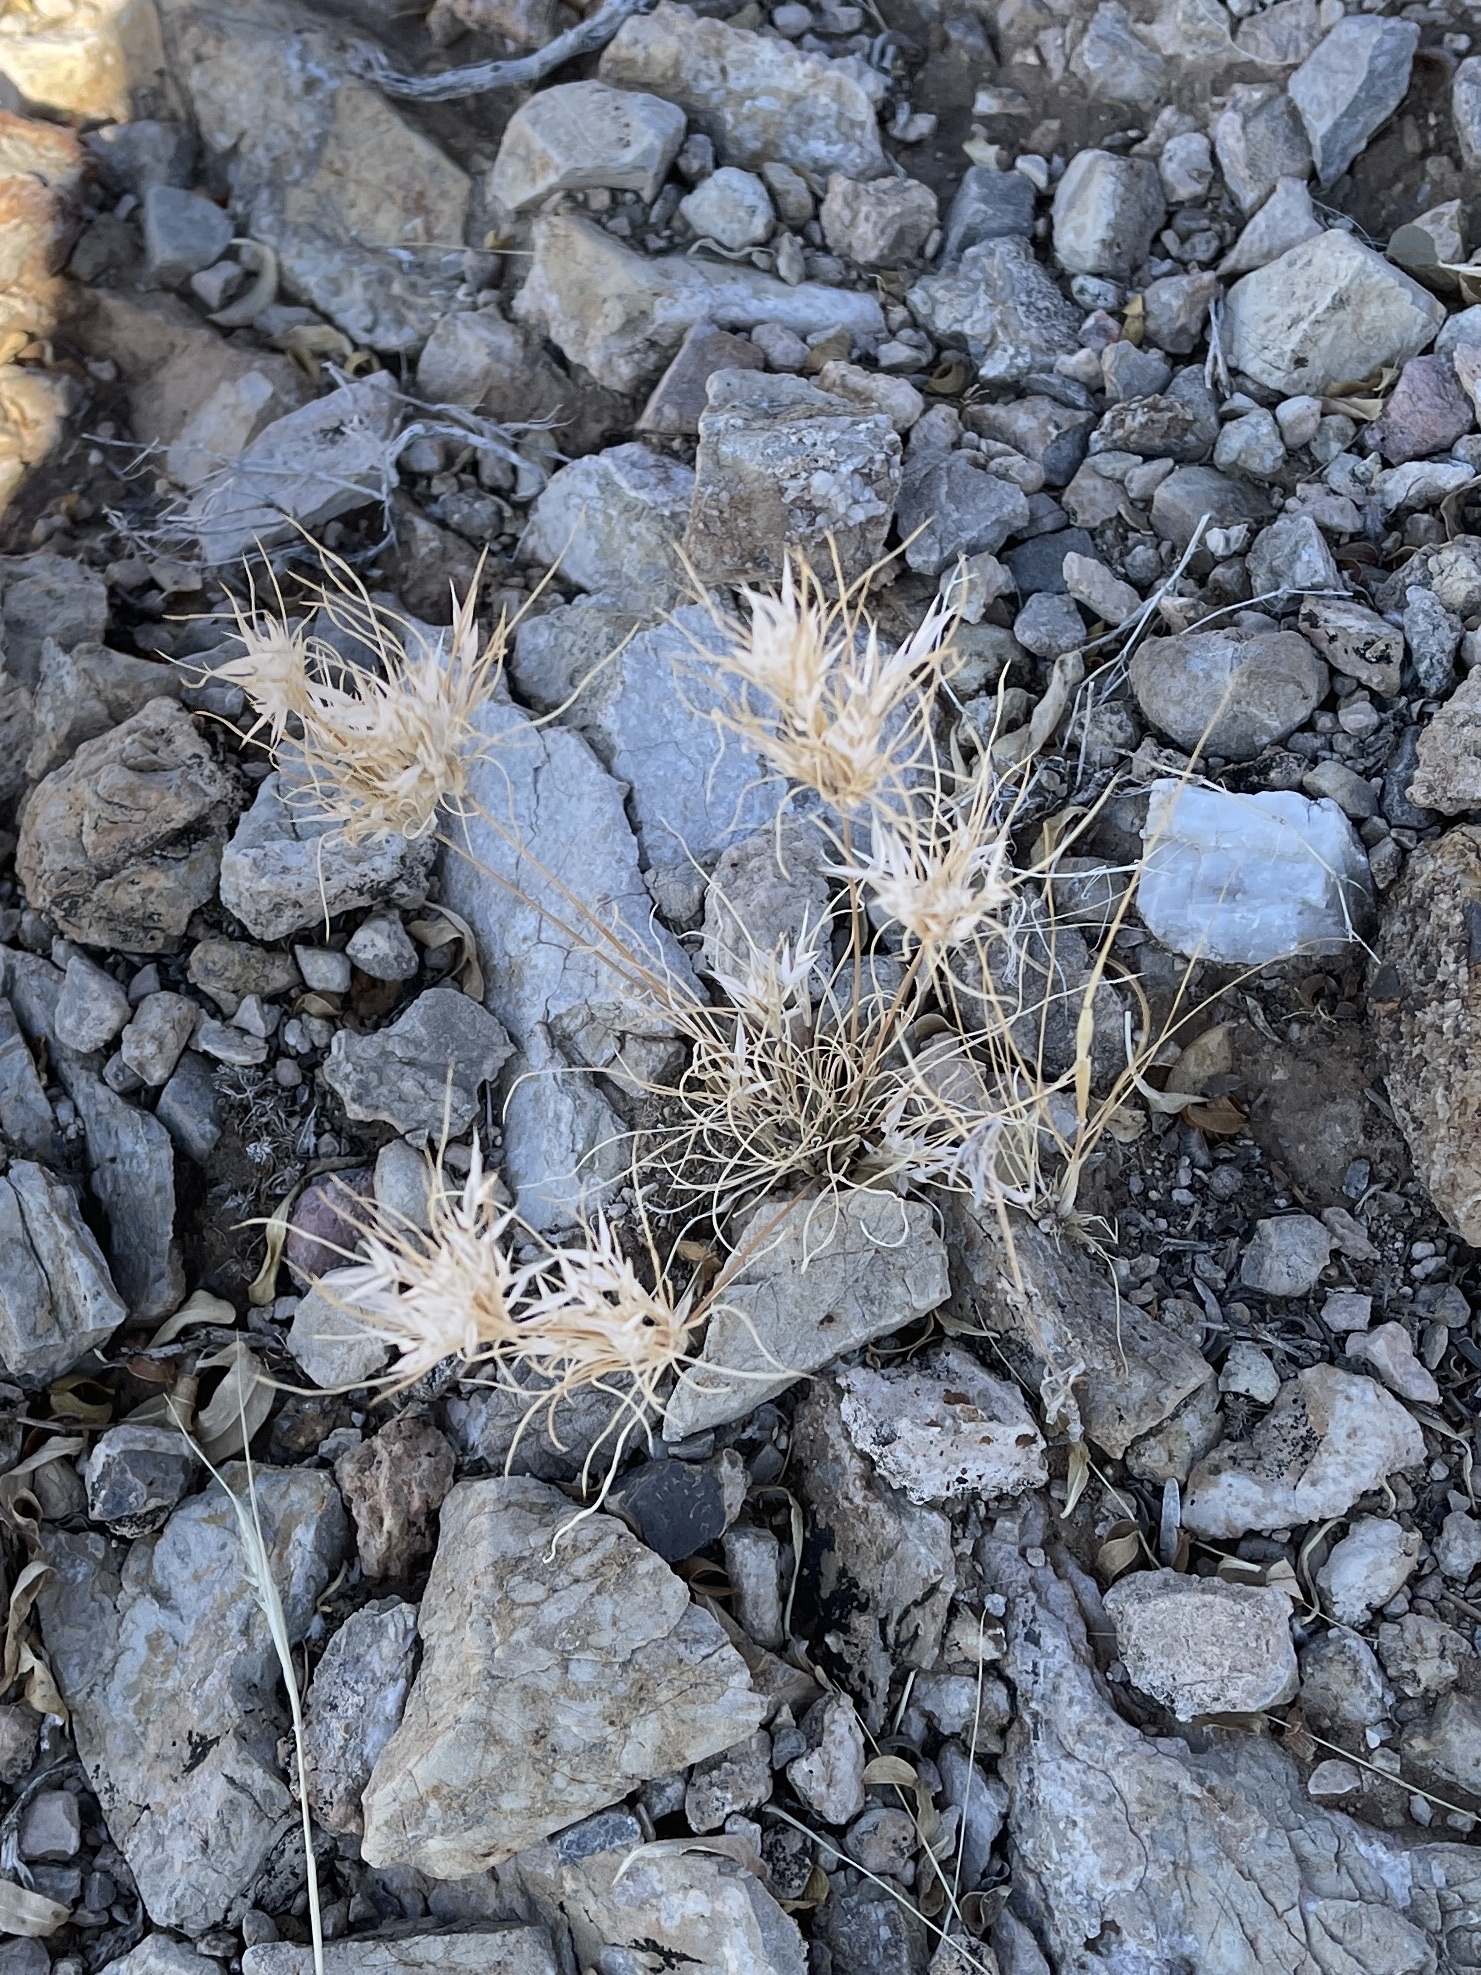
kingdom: Plantae
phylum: Tracheophyta
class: Liliopsida
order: Poales
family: Poaceae
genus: Dasyochloa
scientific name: Dasyochloa pulchella
